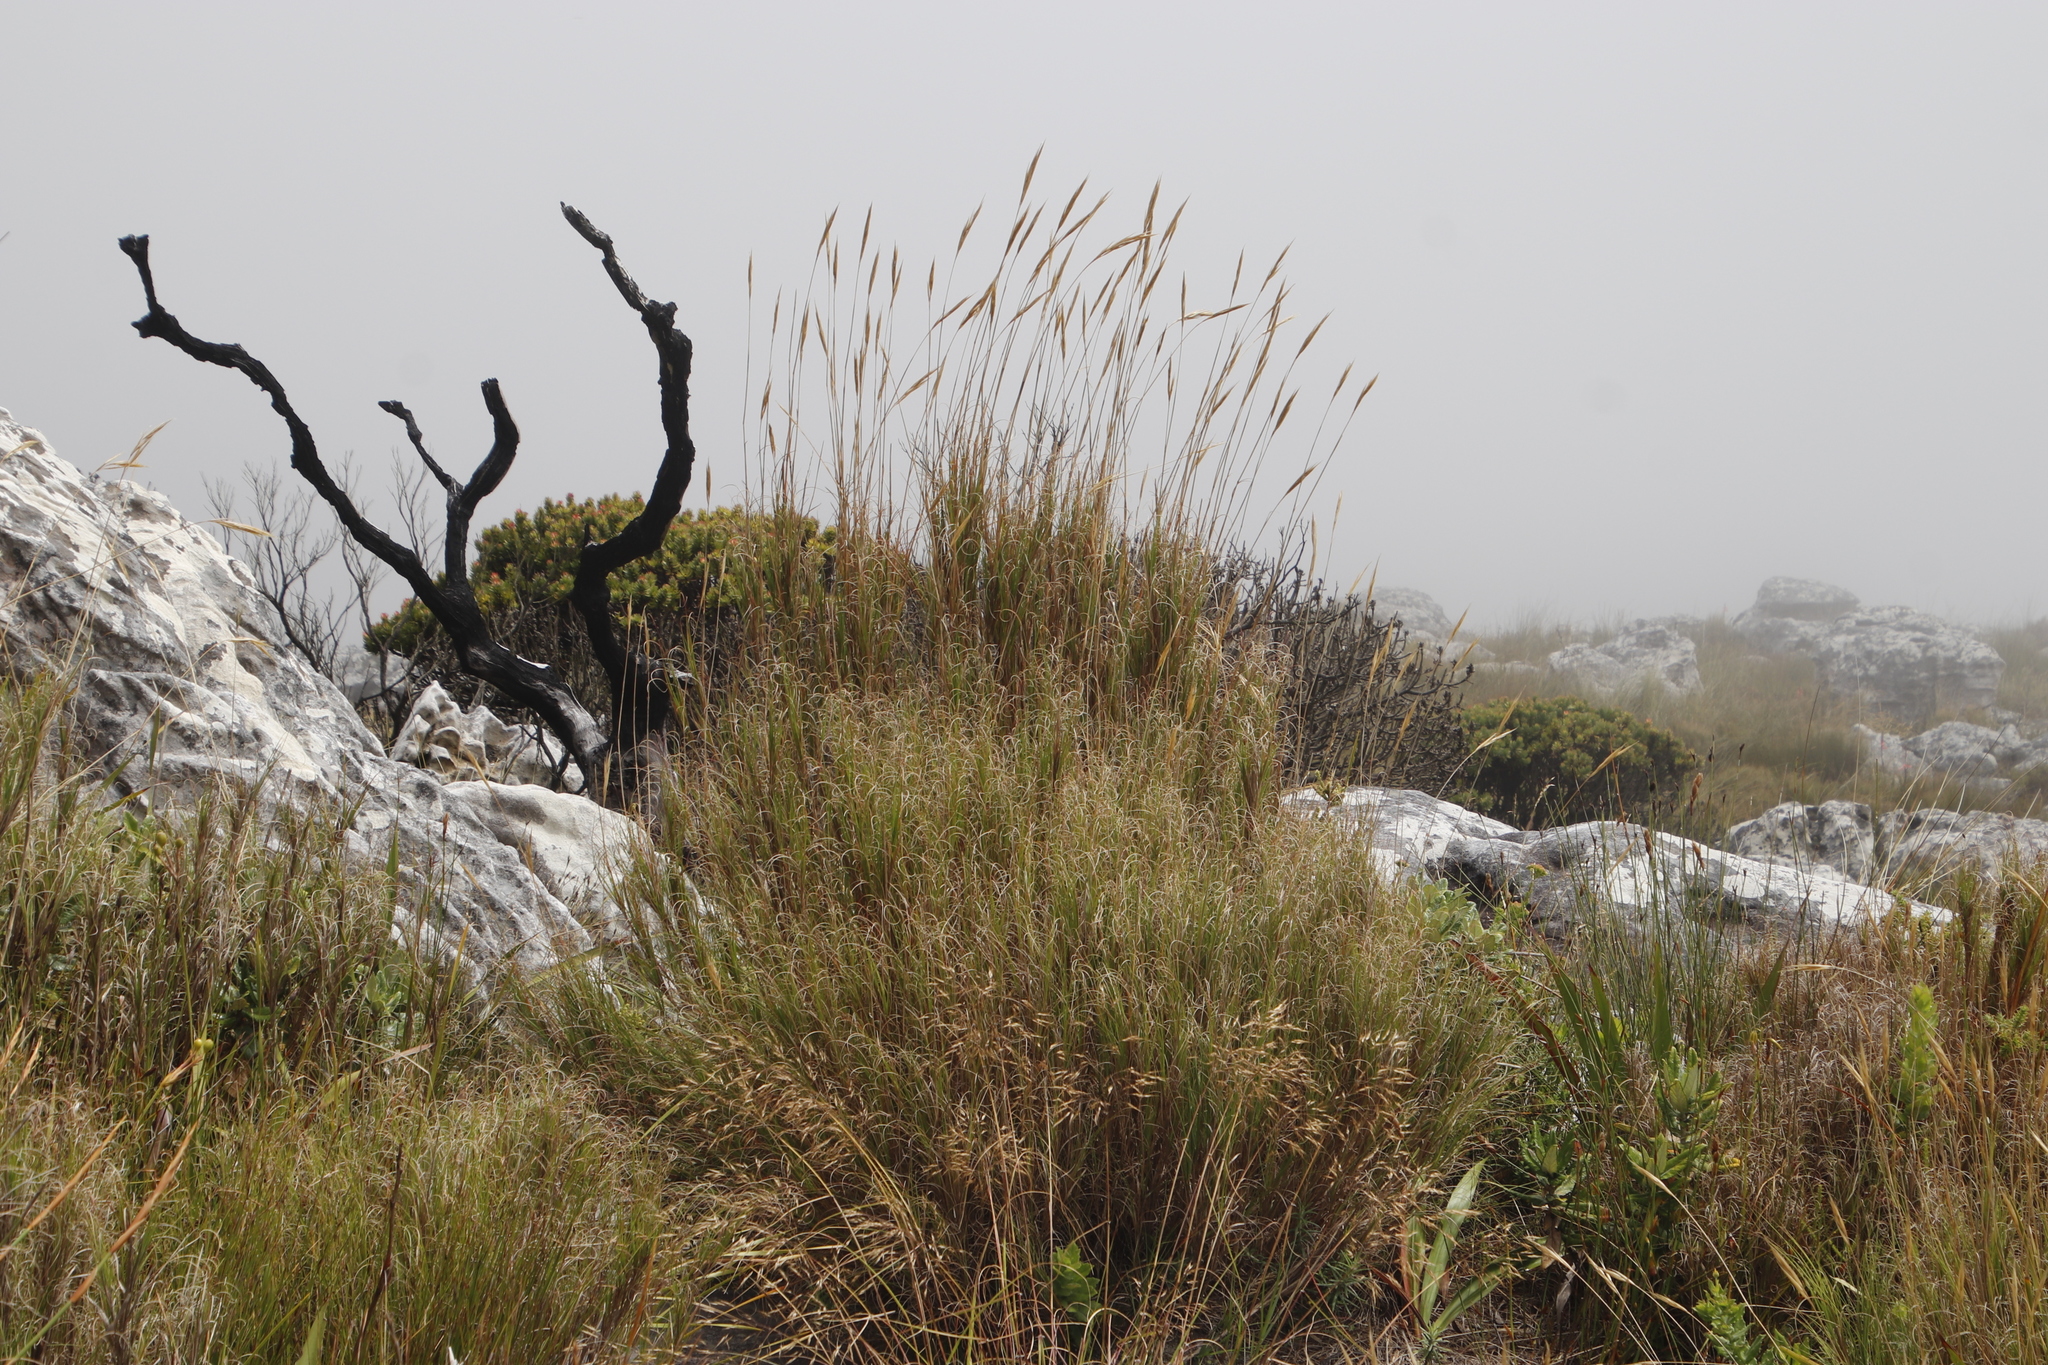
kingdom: Plantae
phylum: Tracheophyta
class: Liliopsida
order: Poales
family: Poaceae
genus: Pseudopentameris
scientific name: Pseudopentameris macrantha
